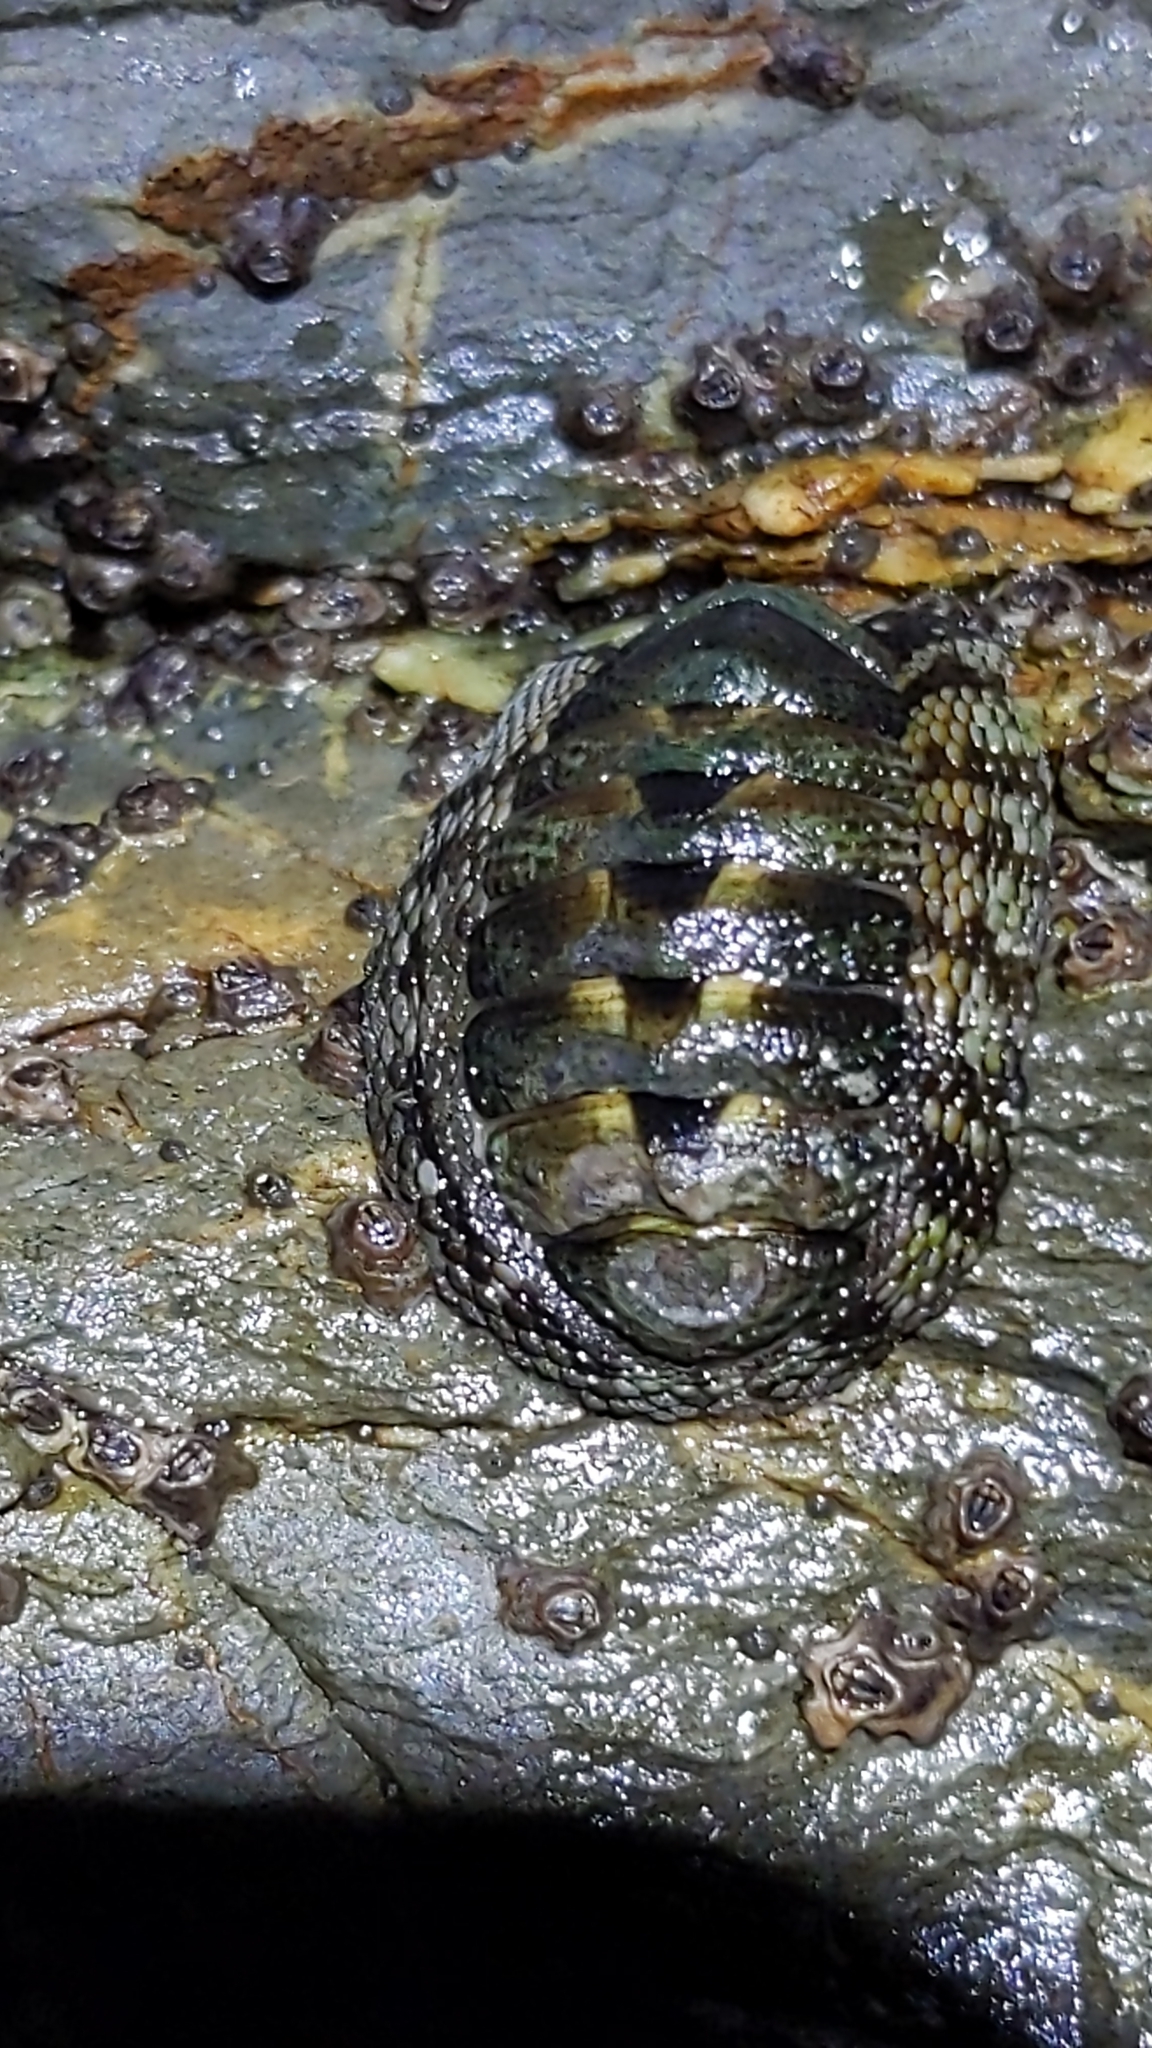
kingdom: Animalia
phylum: Mollusca
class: Polyplacophora
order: Chitonida
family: Chitonidae
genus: Sypharochiton
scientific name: Sypharochiton pelliserpentis
